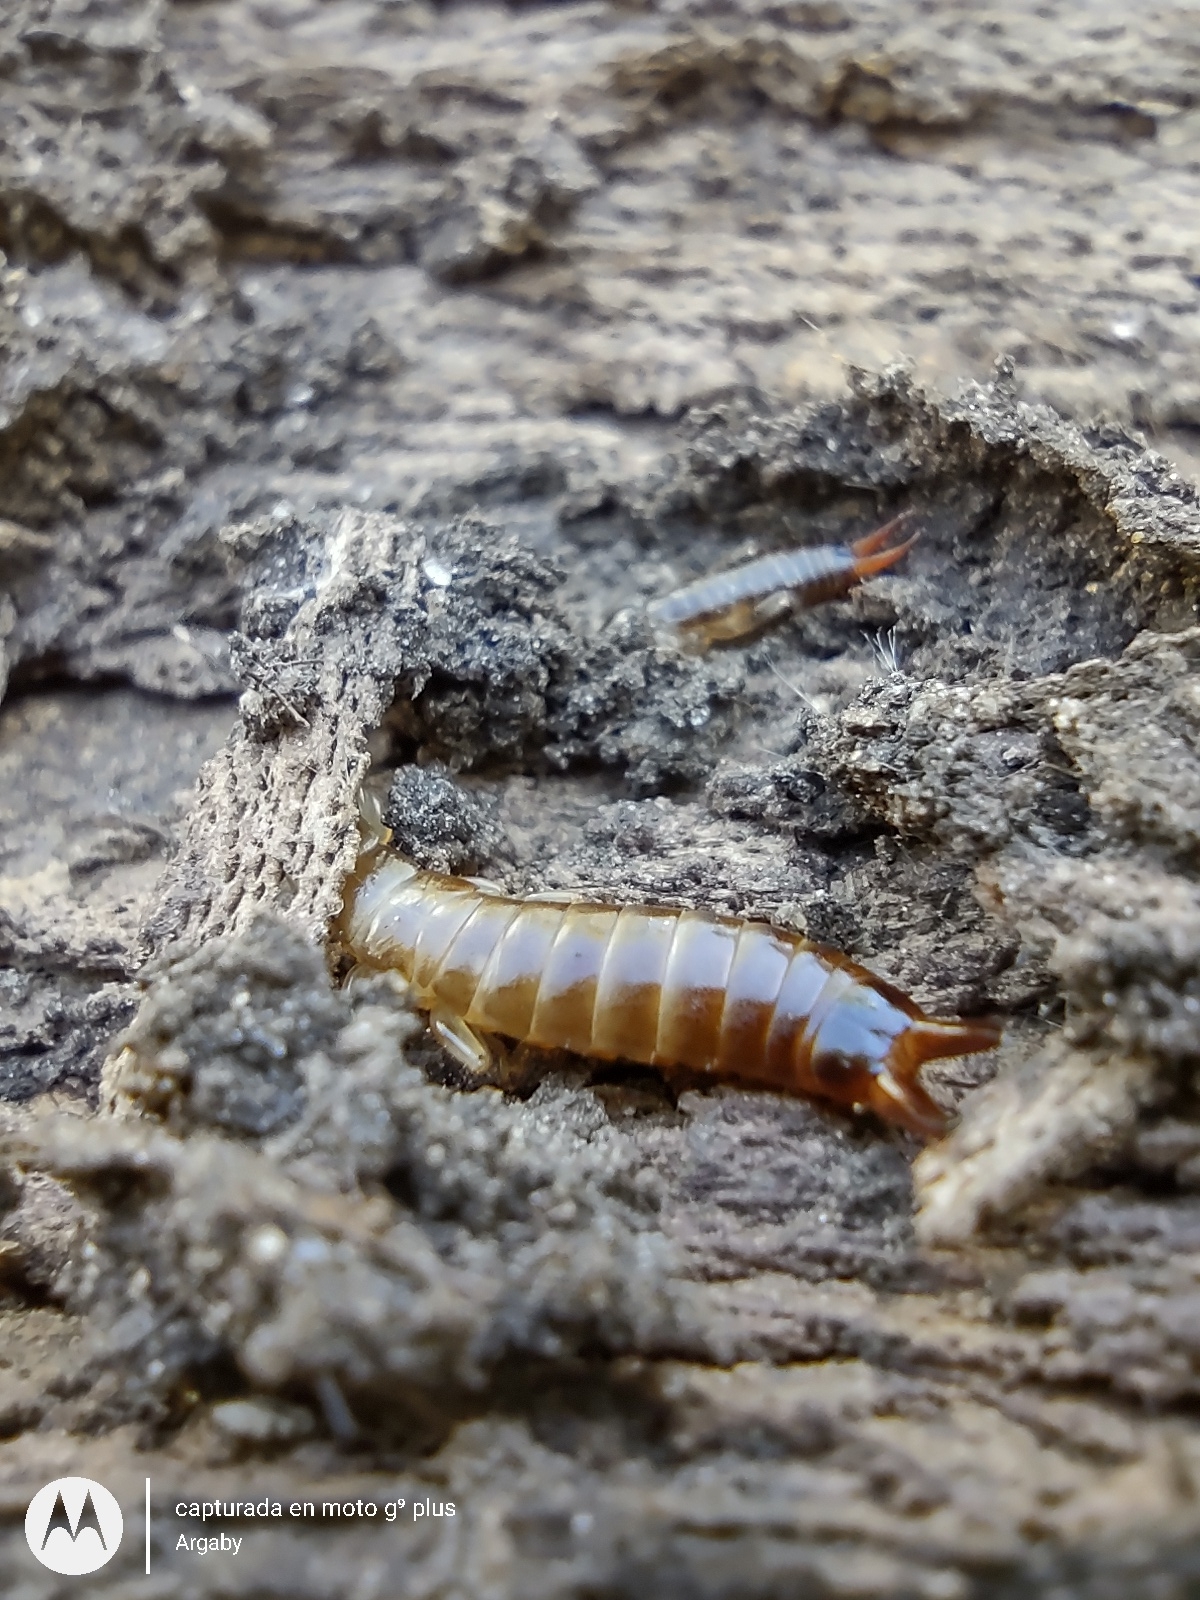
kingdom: Animalia
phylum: Arthropoda
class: Insecta
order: Dermaptera
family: Anisolabididae
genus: Euborellia
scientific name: Euborellia annulipes
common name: Ringlegged earwig
